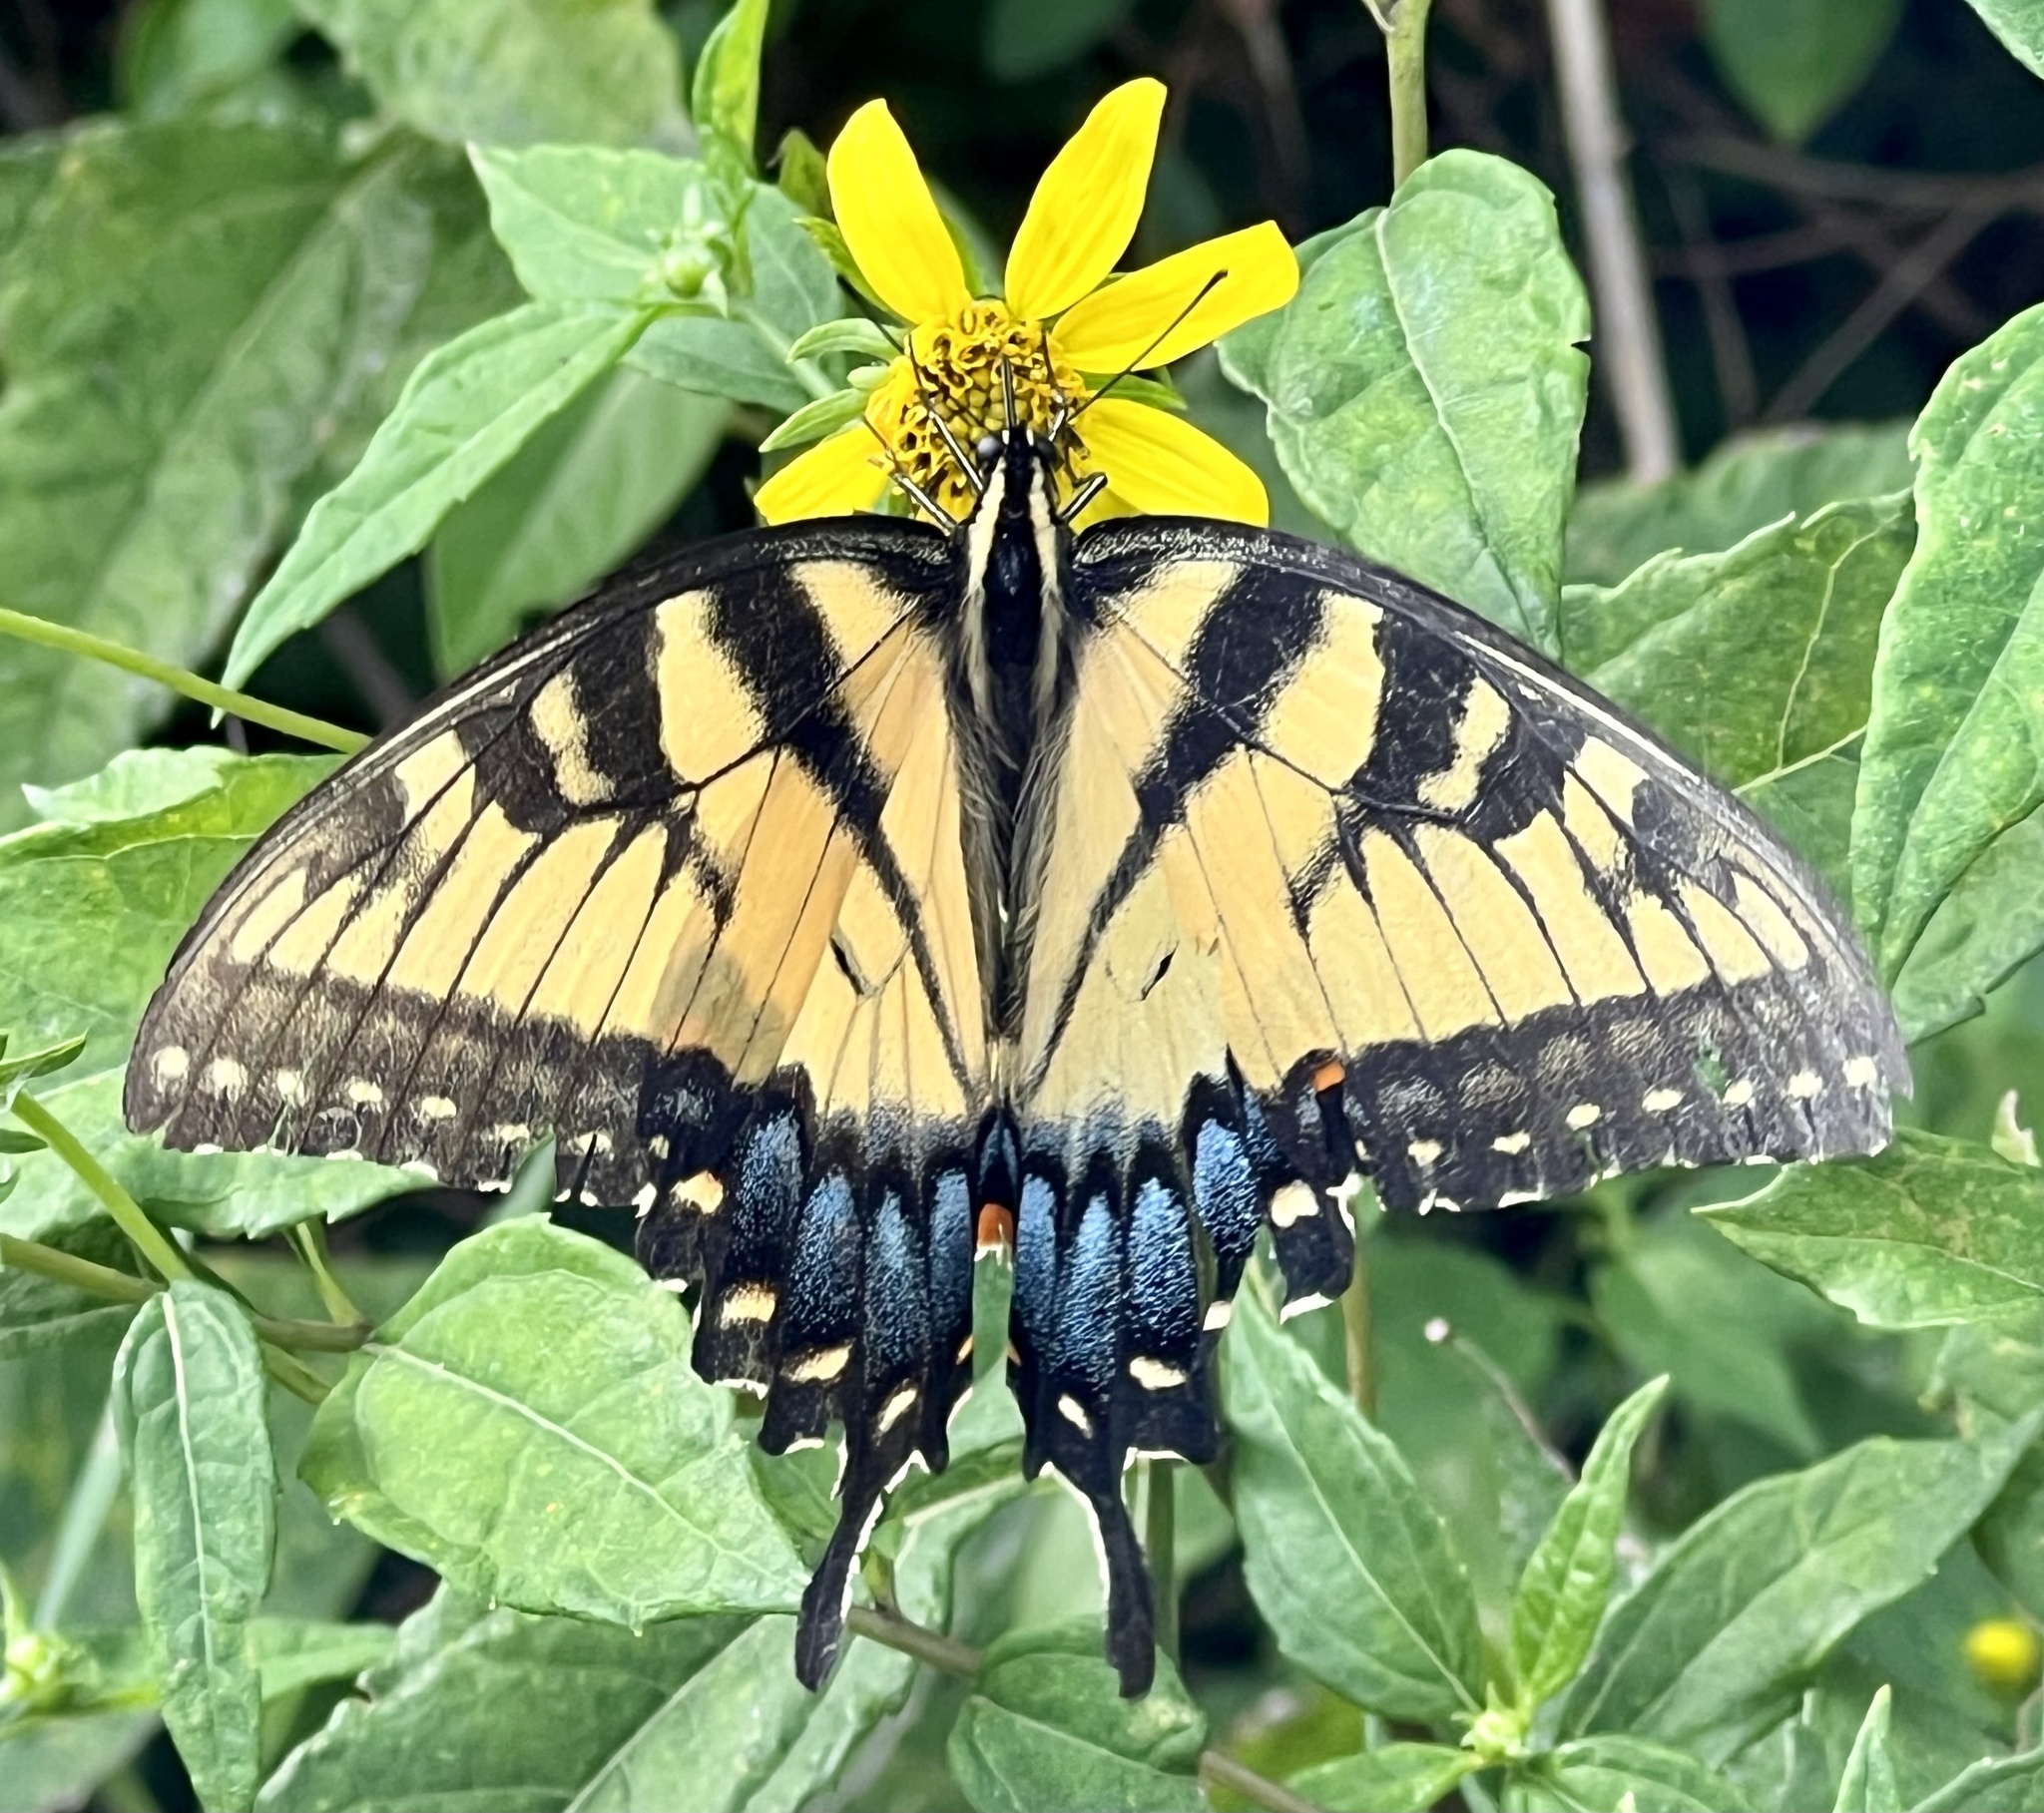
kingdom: Animalia
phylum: Arthropoda
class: Insecta
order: Lepidoptera
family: Papilionidae
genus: Papilio
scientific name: Papilio glaucus
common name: Tiger swallowtail
